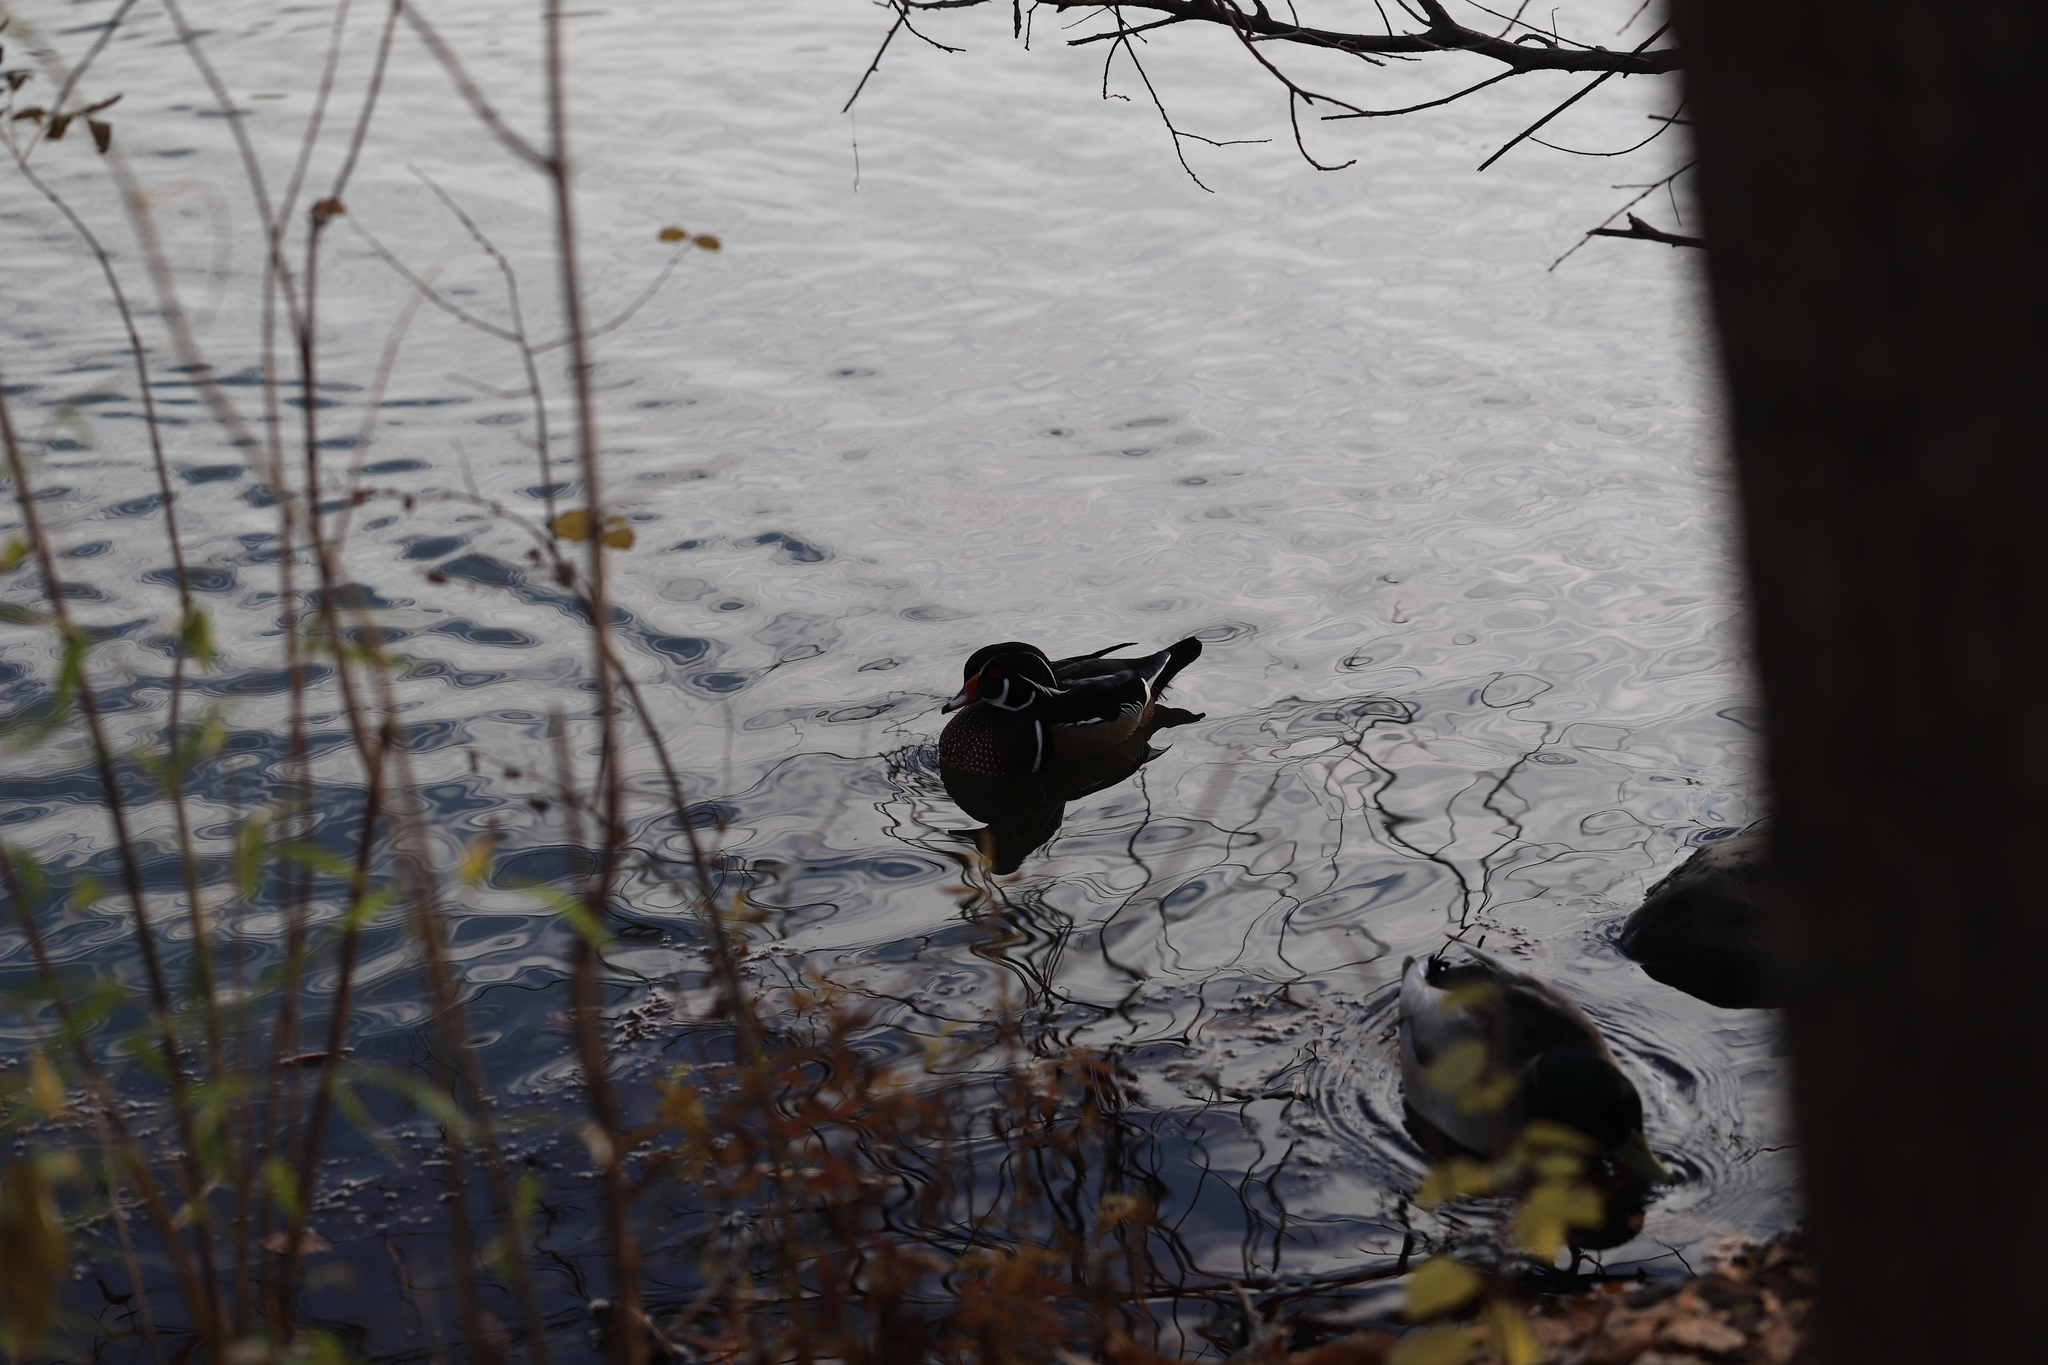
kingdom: Animalia
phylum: Chordata
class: Aves
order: Anseriformes
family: Anatidae
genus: Aix
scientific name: Aix sponsa
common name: Wood duck
